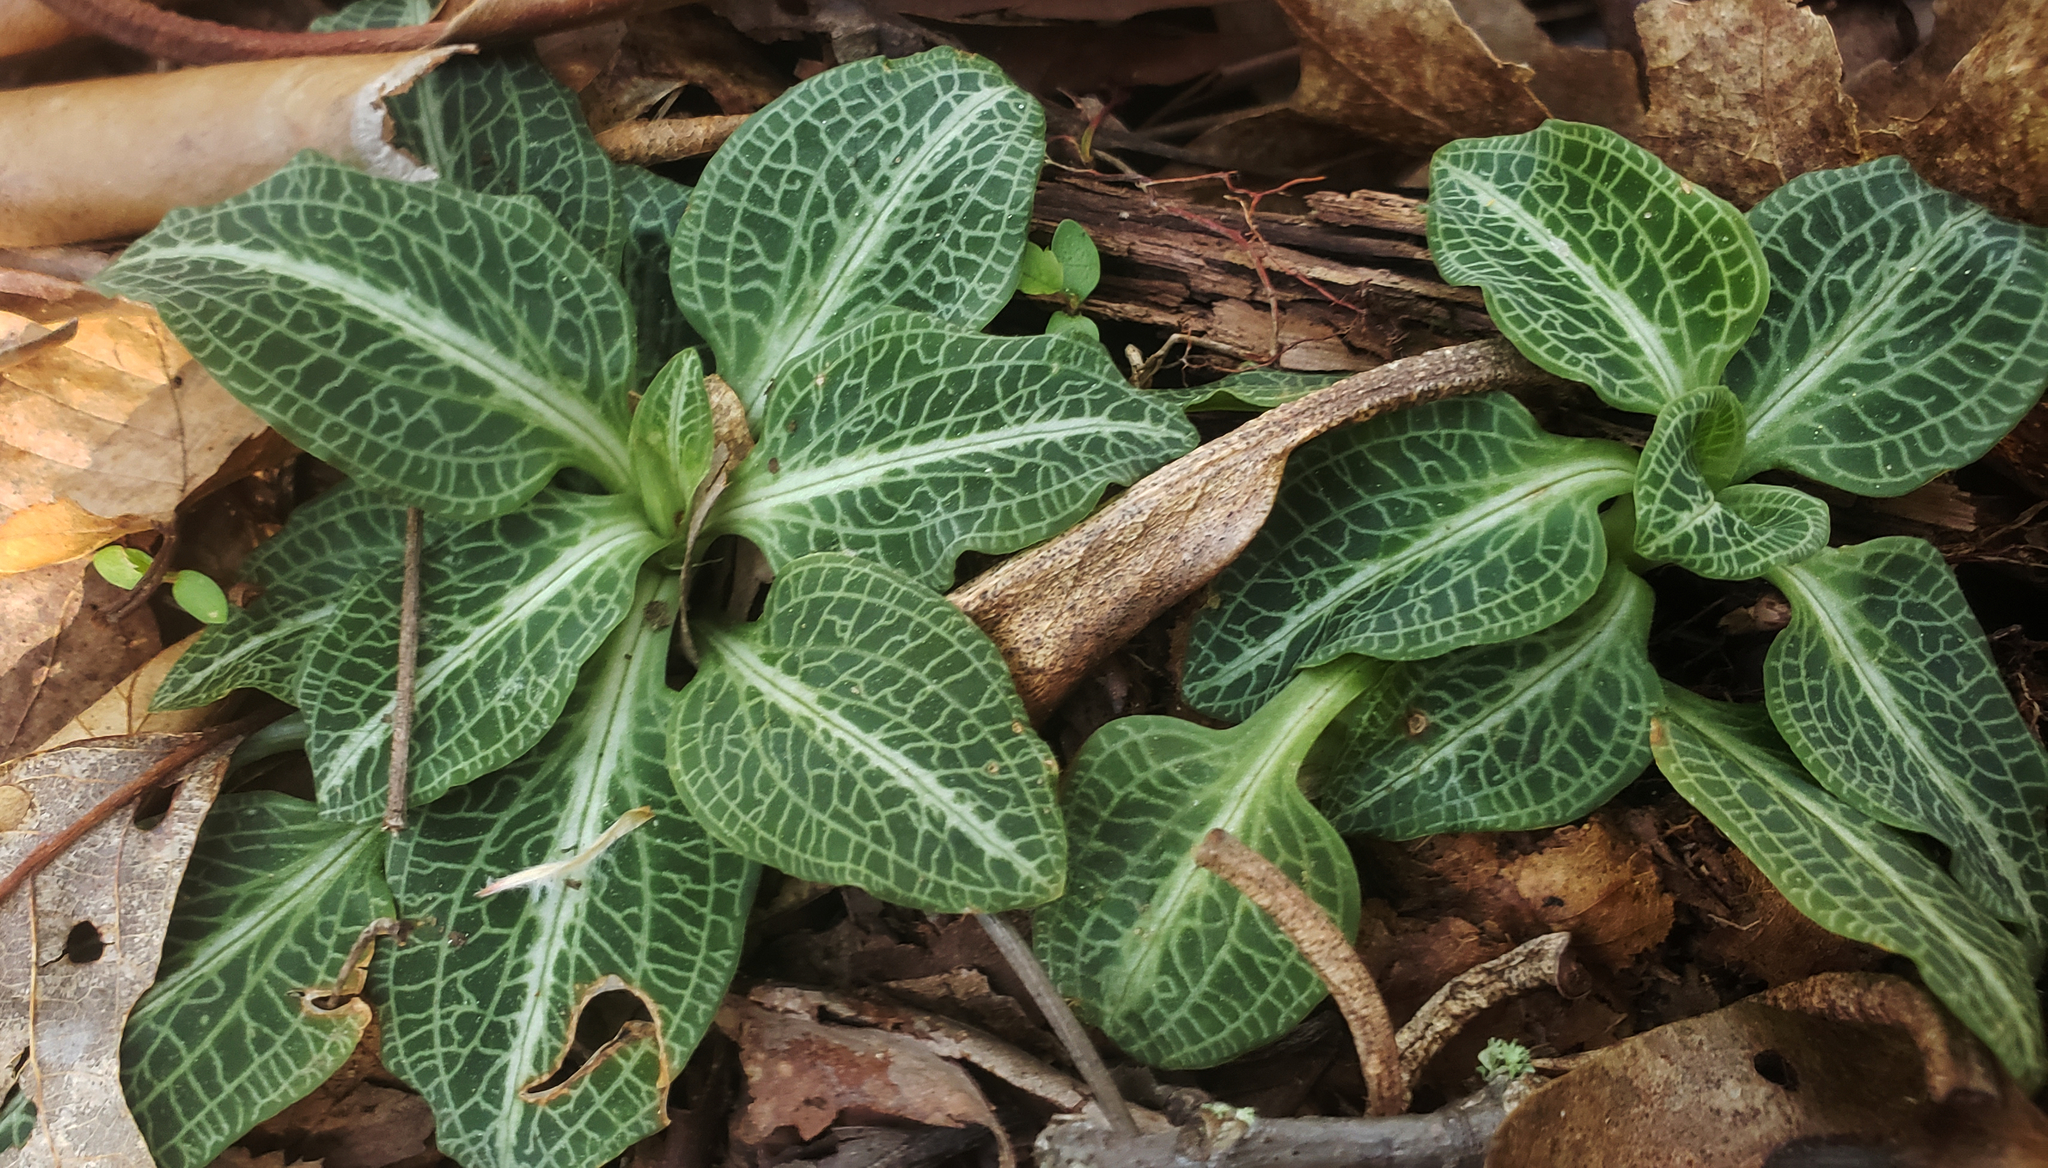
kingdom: Plantae
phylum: Tracheophyta
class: Liliopsida
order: Asparagales
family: Orchidaceae
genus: Goodyera
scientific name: Goodyera pubescens
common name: Downy rattlesnake-plantain
